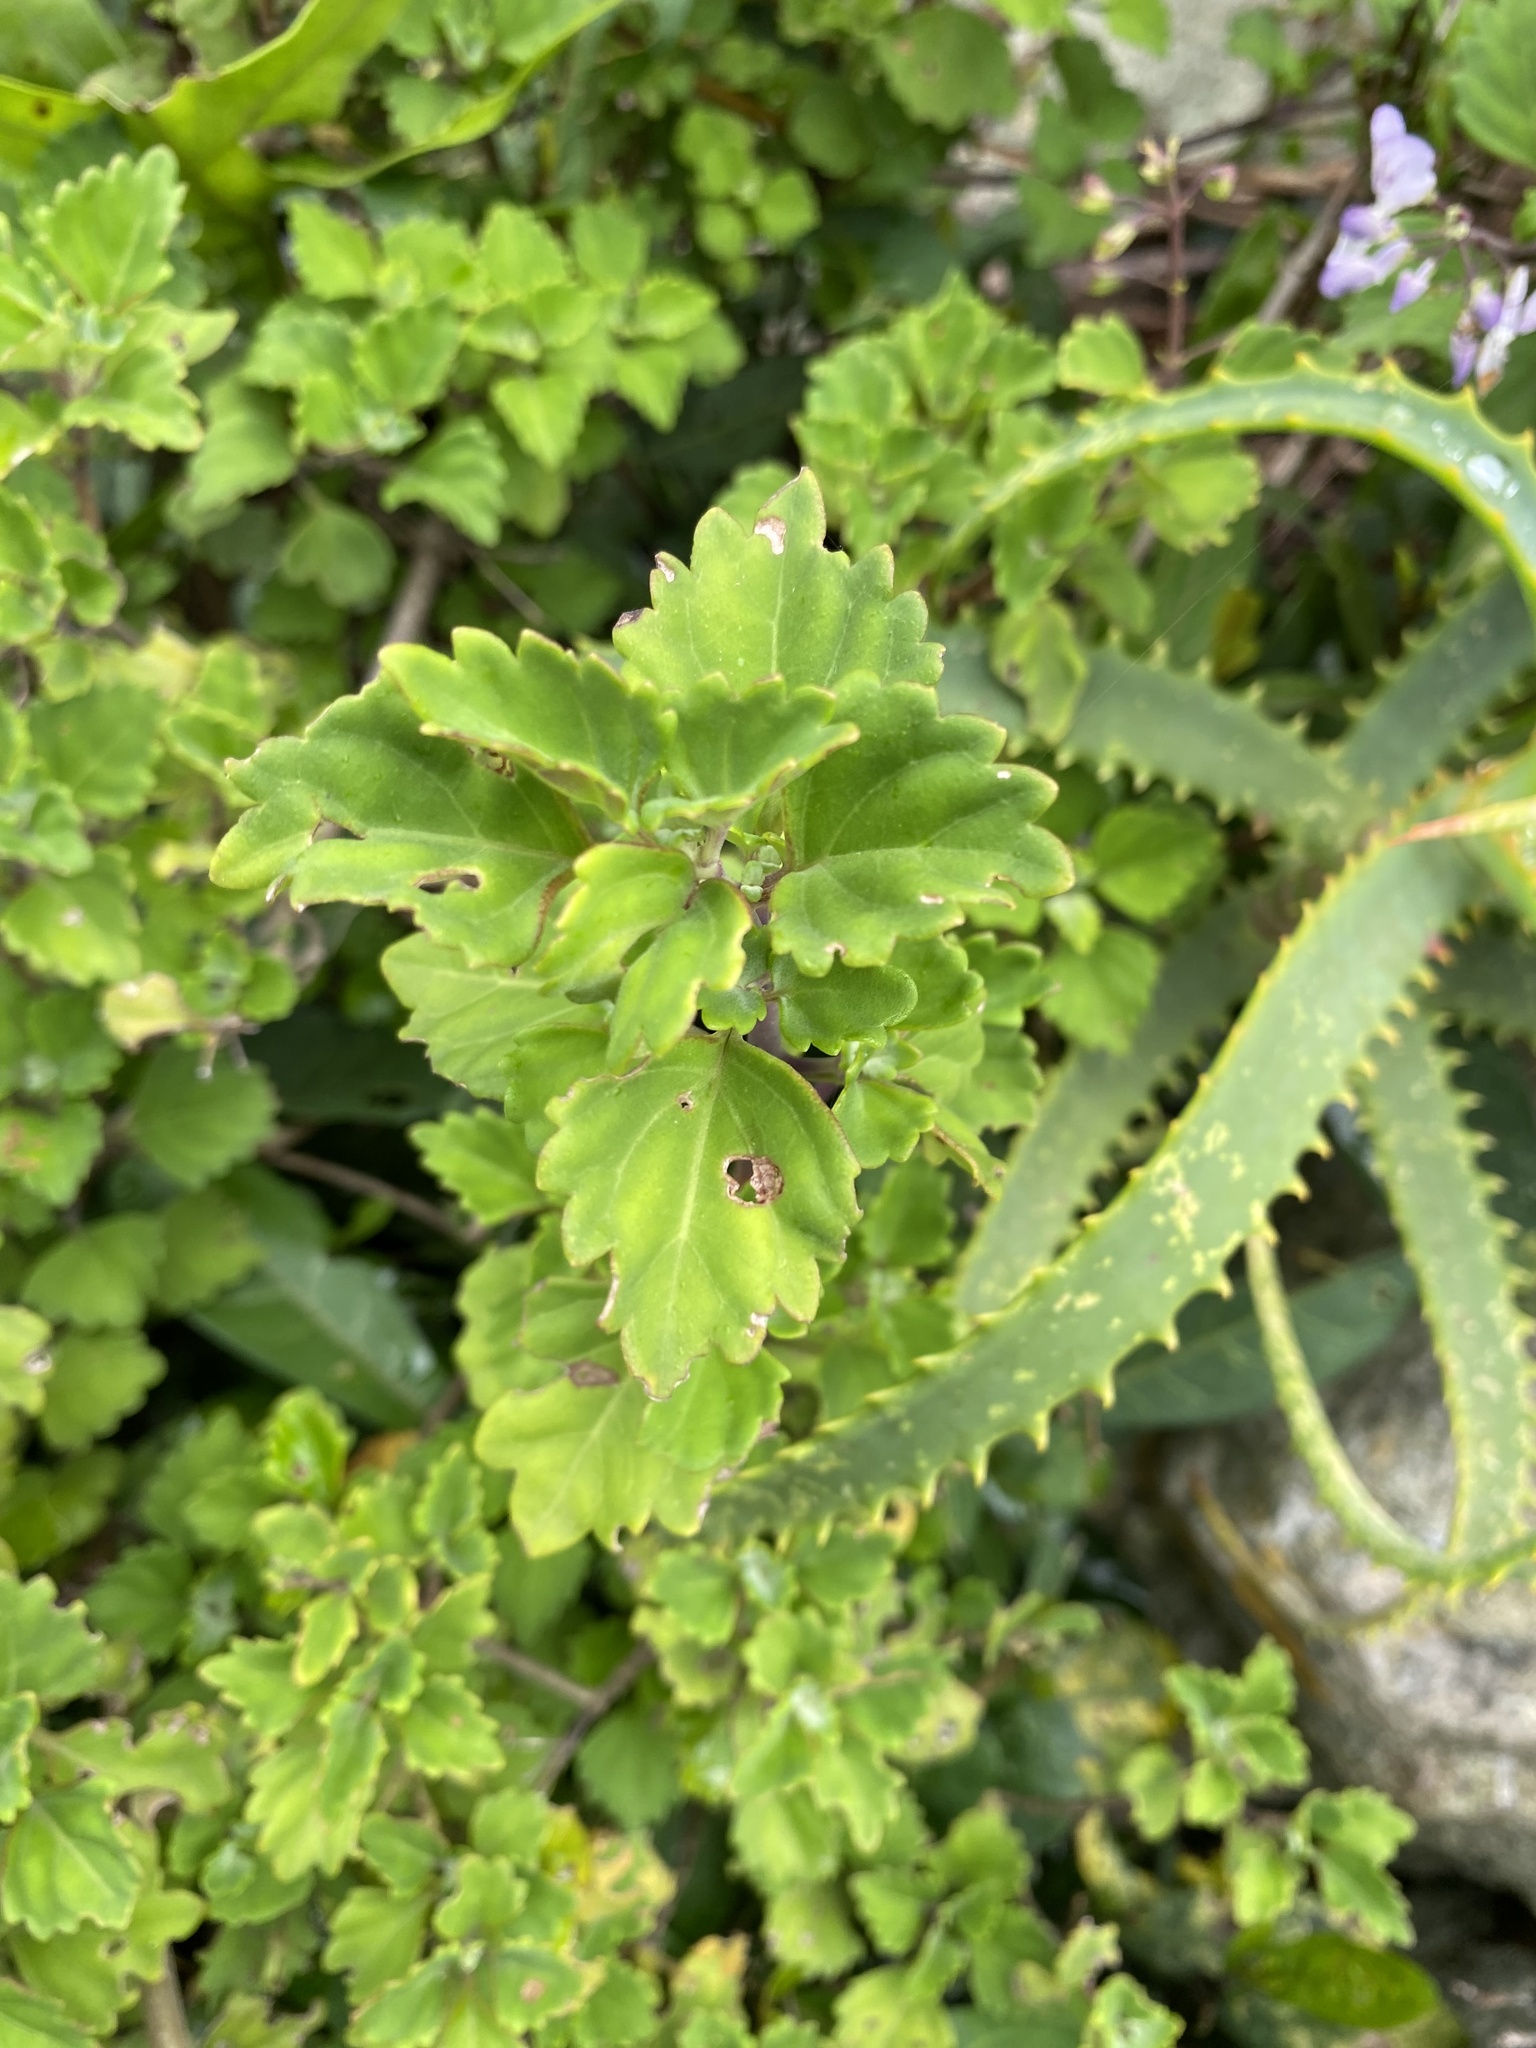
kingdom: Plantae
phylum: Tracheophyta
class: Magnoliopsida
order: Lamiales
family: Lamiaceae
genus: Plectranthus
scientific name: Plectranthus saccatus
